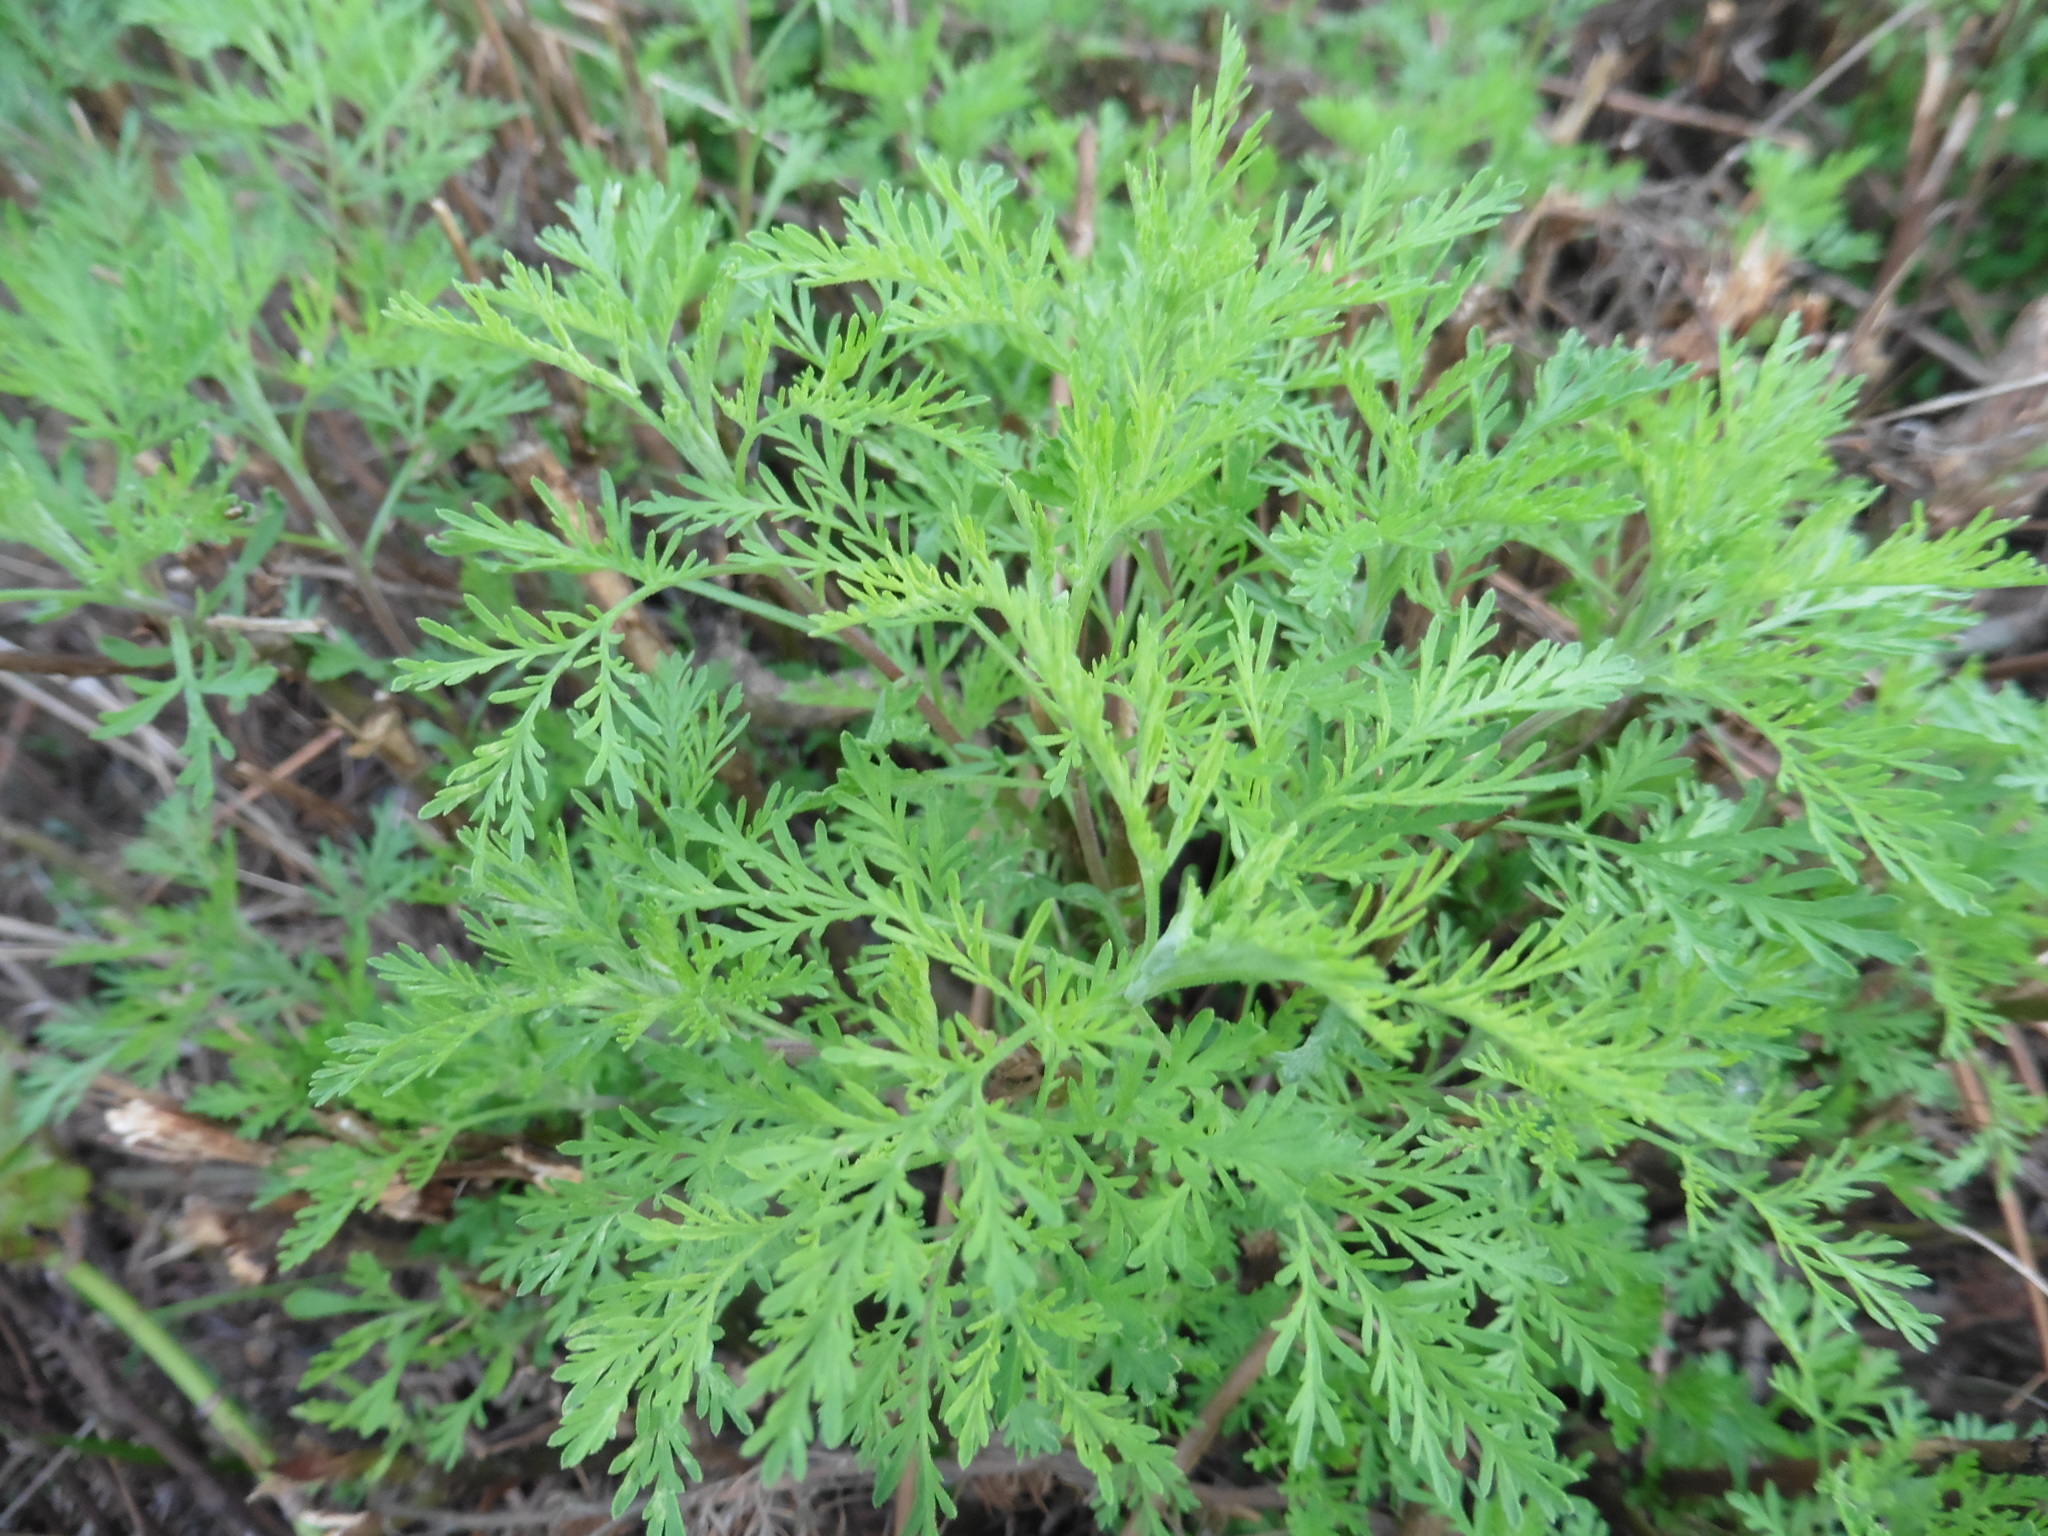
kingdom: Plantae
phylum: Tracheophyta
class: Magnoliopsida
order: Asterales
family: Asteraceae
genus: Artemisia
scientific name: Artemisia abrotanum
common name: Southernwood
